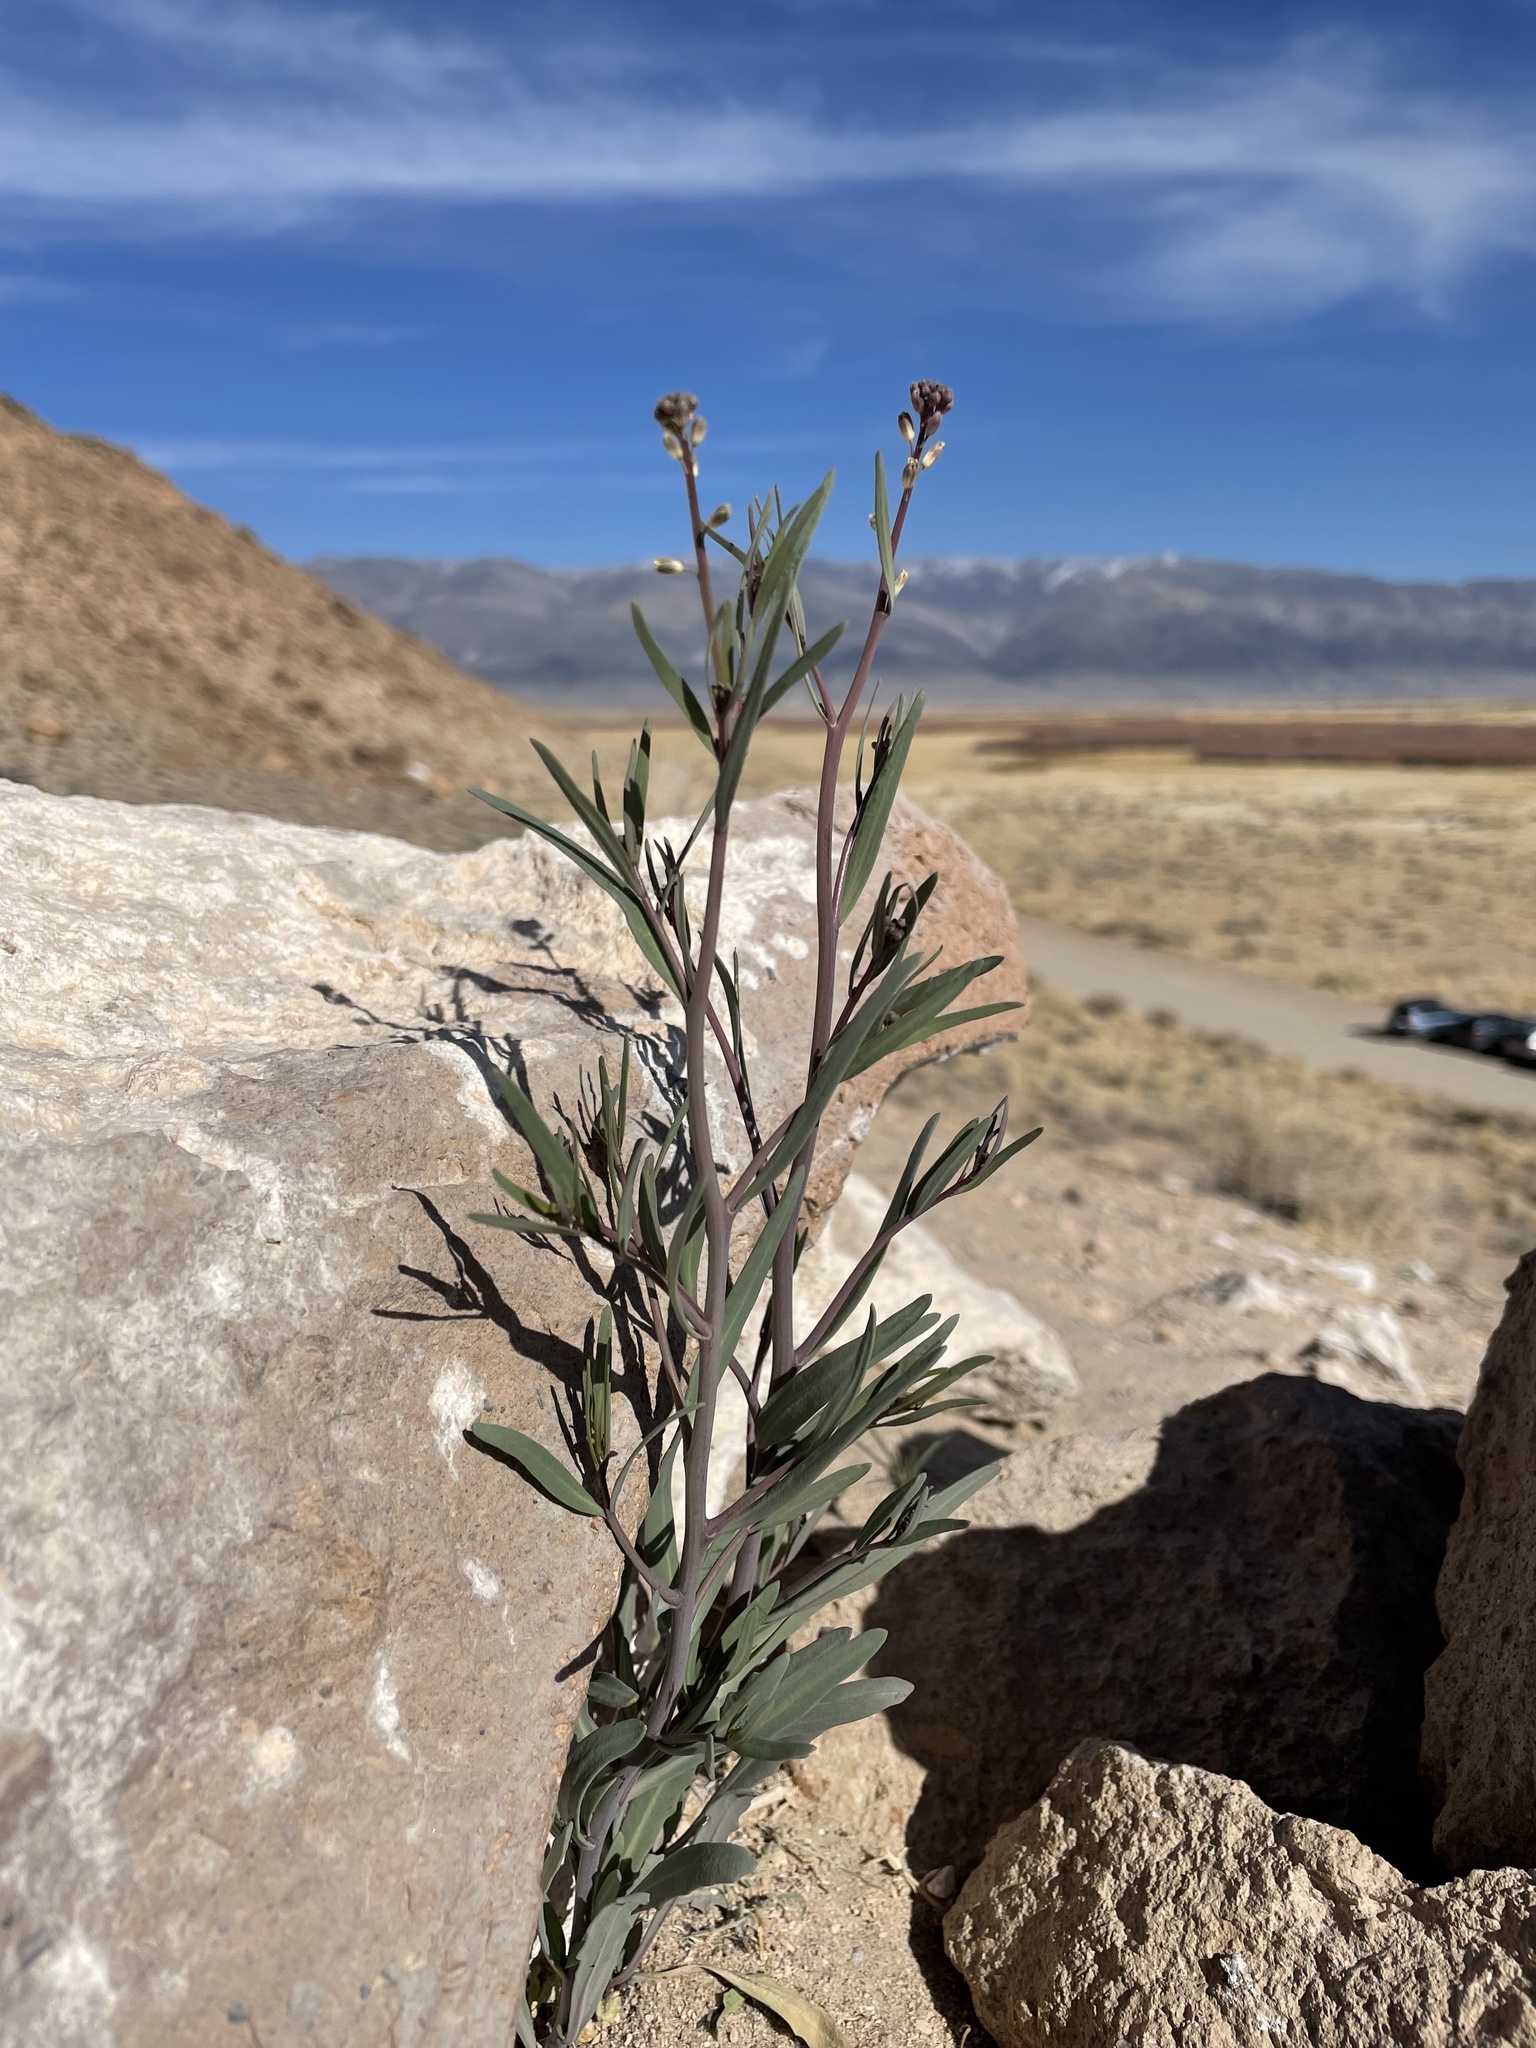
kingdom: Plantae
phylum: Tracheophyta
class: Magnoliopsida
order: Brassicales
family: Brassicaceae
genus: Streptanthus
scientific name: Streptanthus longirostris
